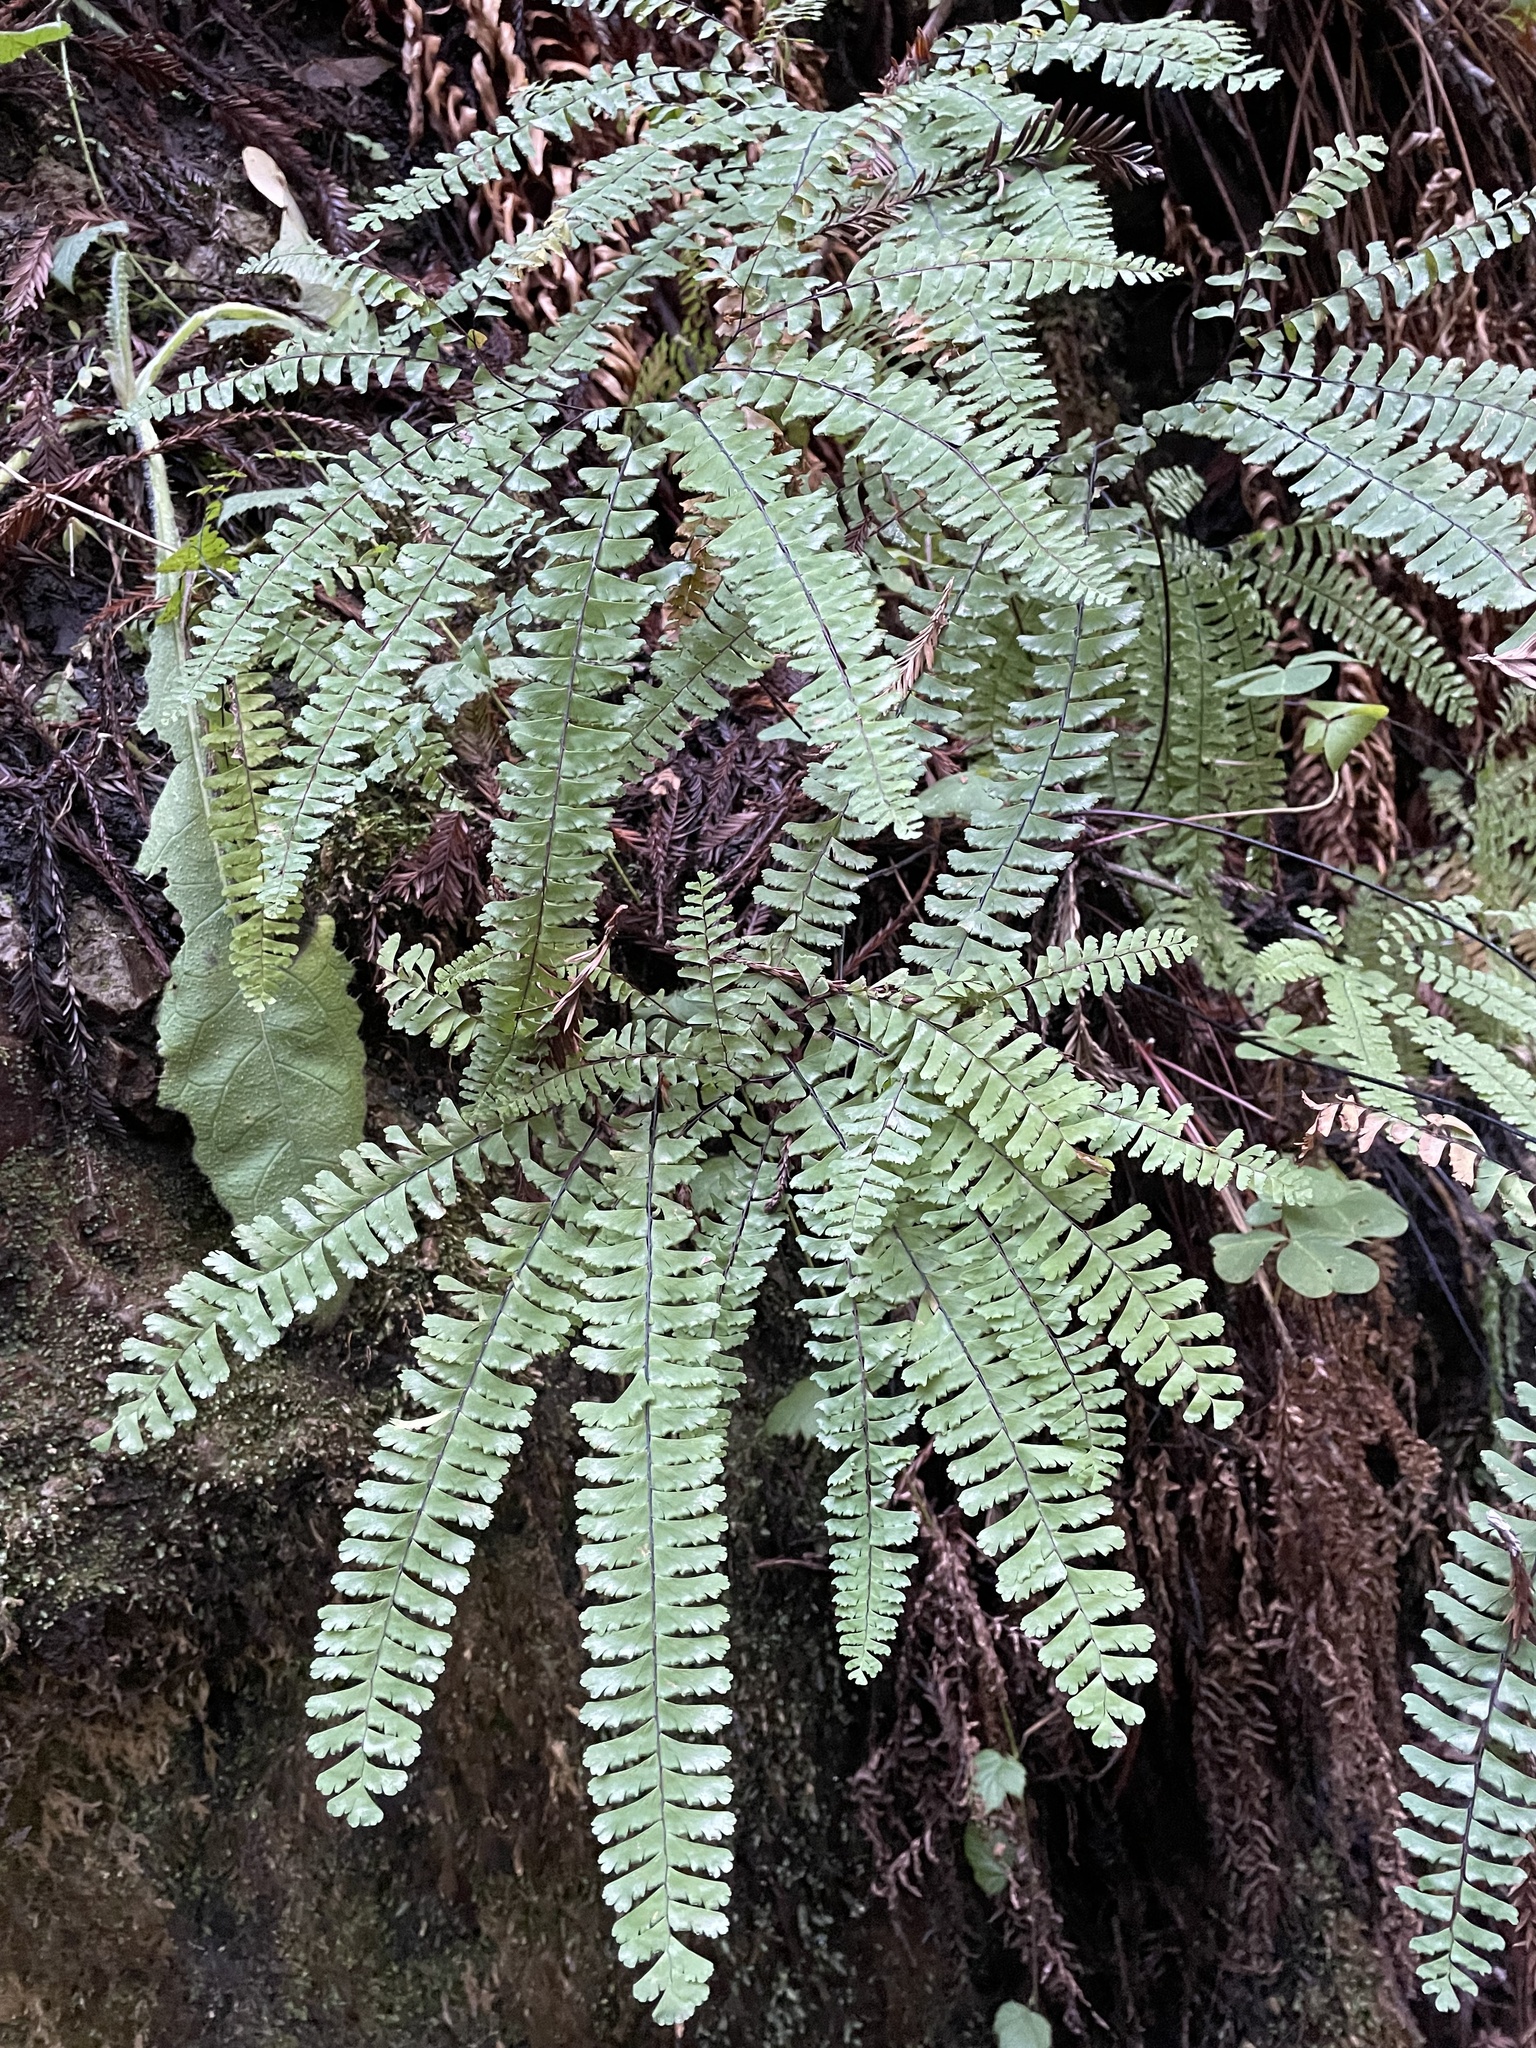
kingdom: Plantae
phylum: Tracheophyta
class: Polypodiopsida
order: Polypodiales
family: Pteridaceae
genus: Adiantum
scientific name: Adiantum aleuticum
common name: Aleutian maidenhair fern
